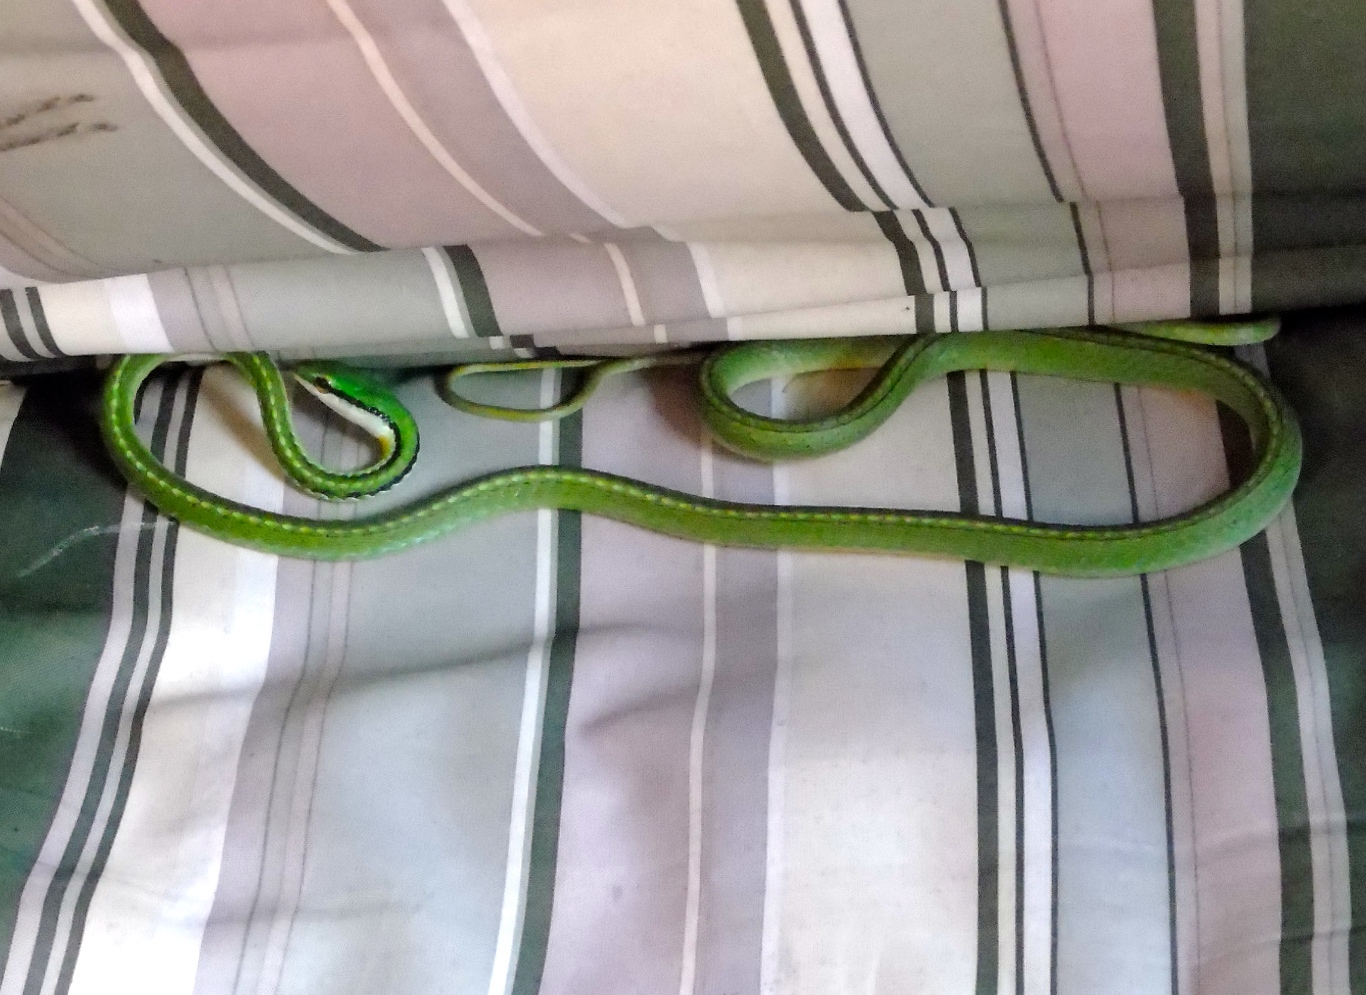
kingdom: Animalia
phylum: Chordata
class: Squamata
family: Colubridae
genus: Leptophis
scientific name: Leptophis diplotropis
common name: Pacific coast parrot snake
